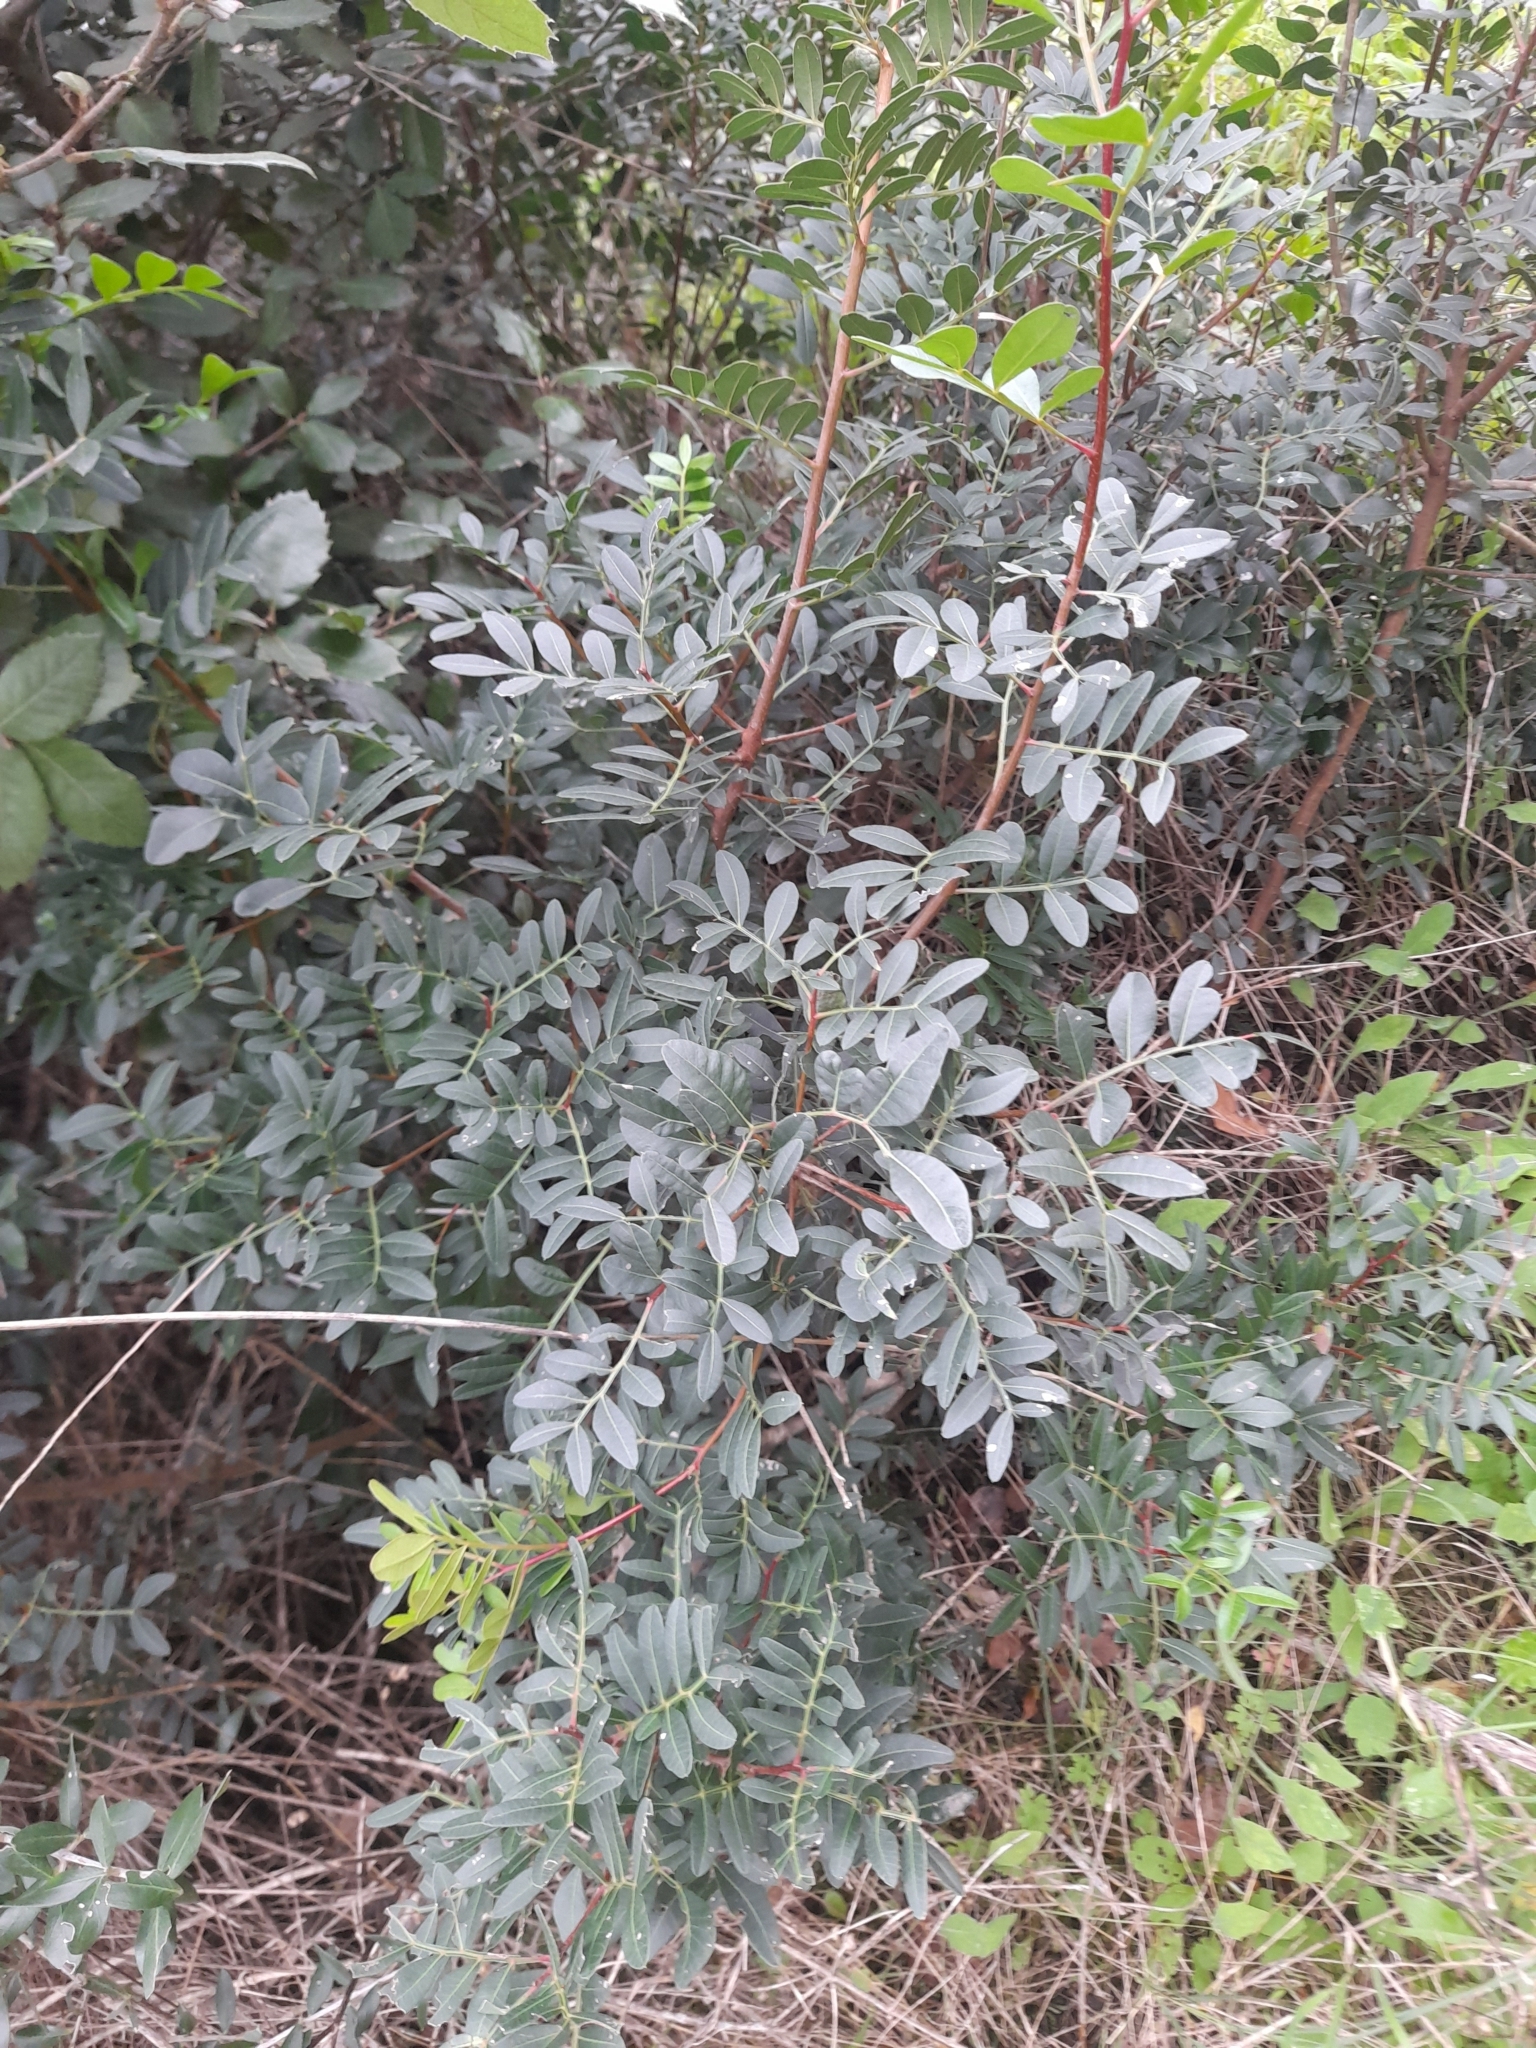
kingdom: Plantae
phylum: Tracheophyta
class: Magnoliopsida
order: Sapindales
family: Anacardiaceae
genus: Pistacia
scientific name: Pistacia lentiscus
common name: Lentisk
